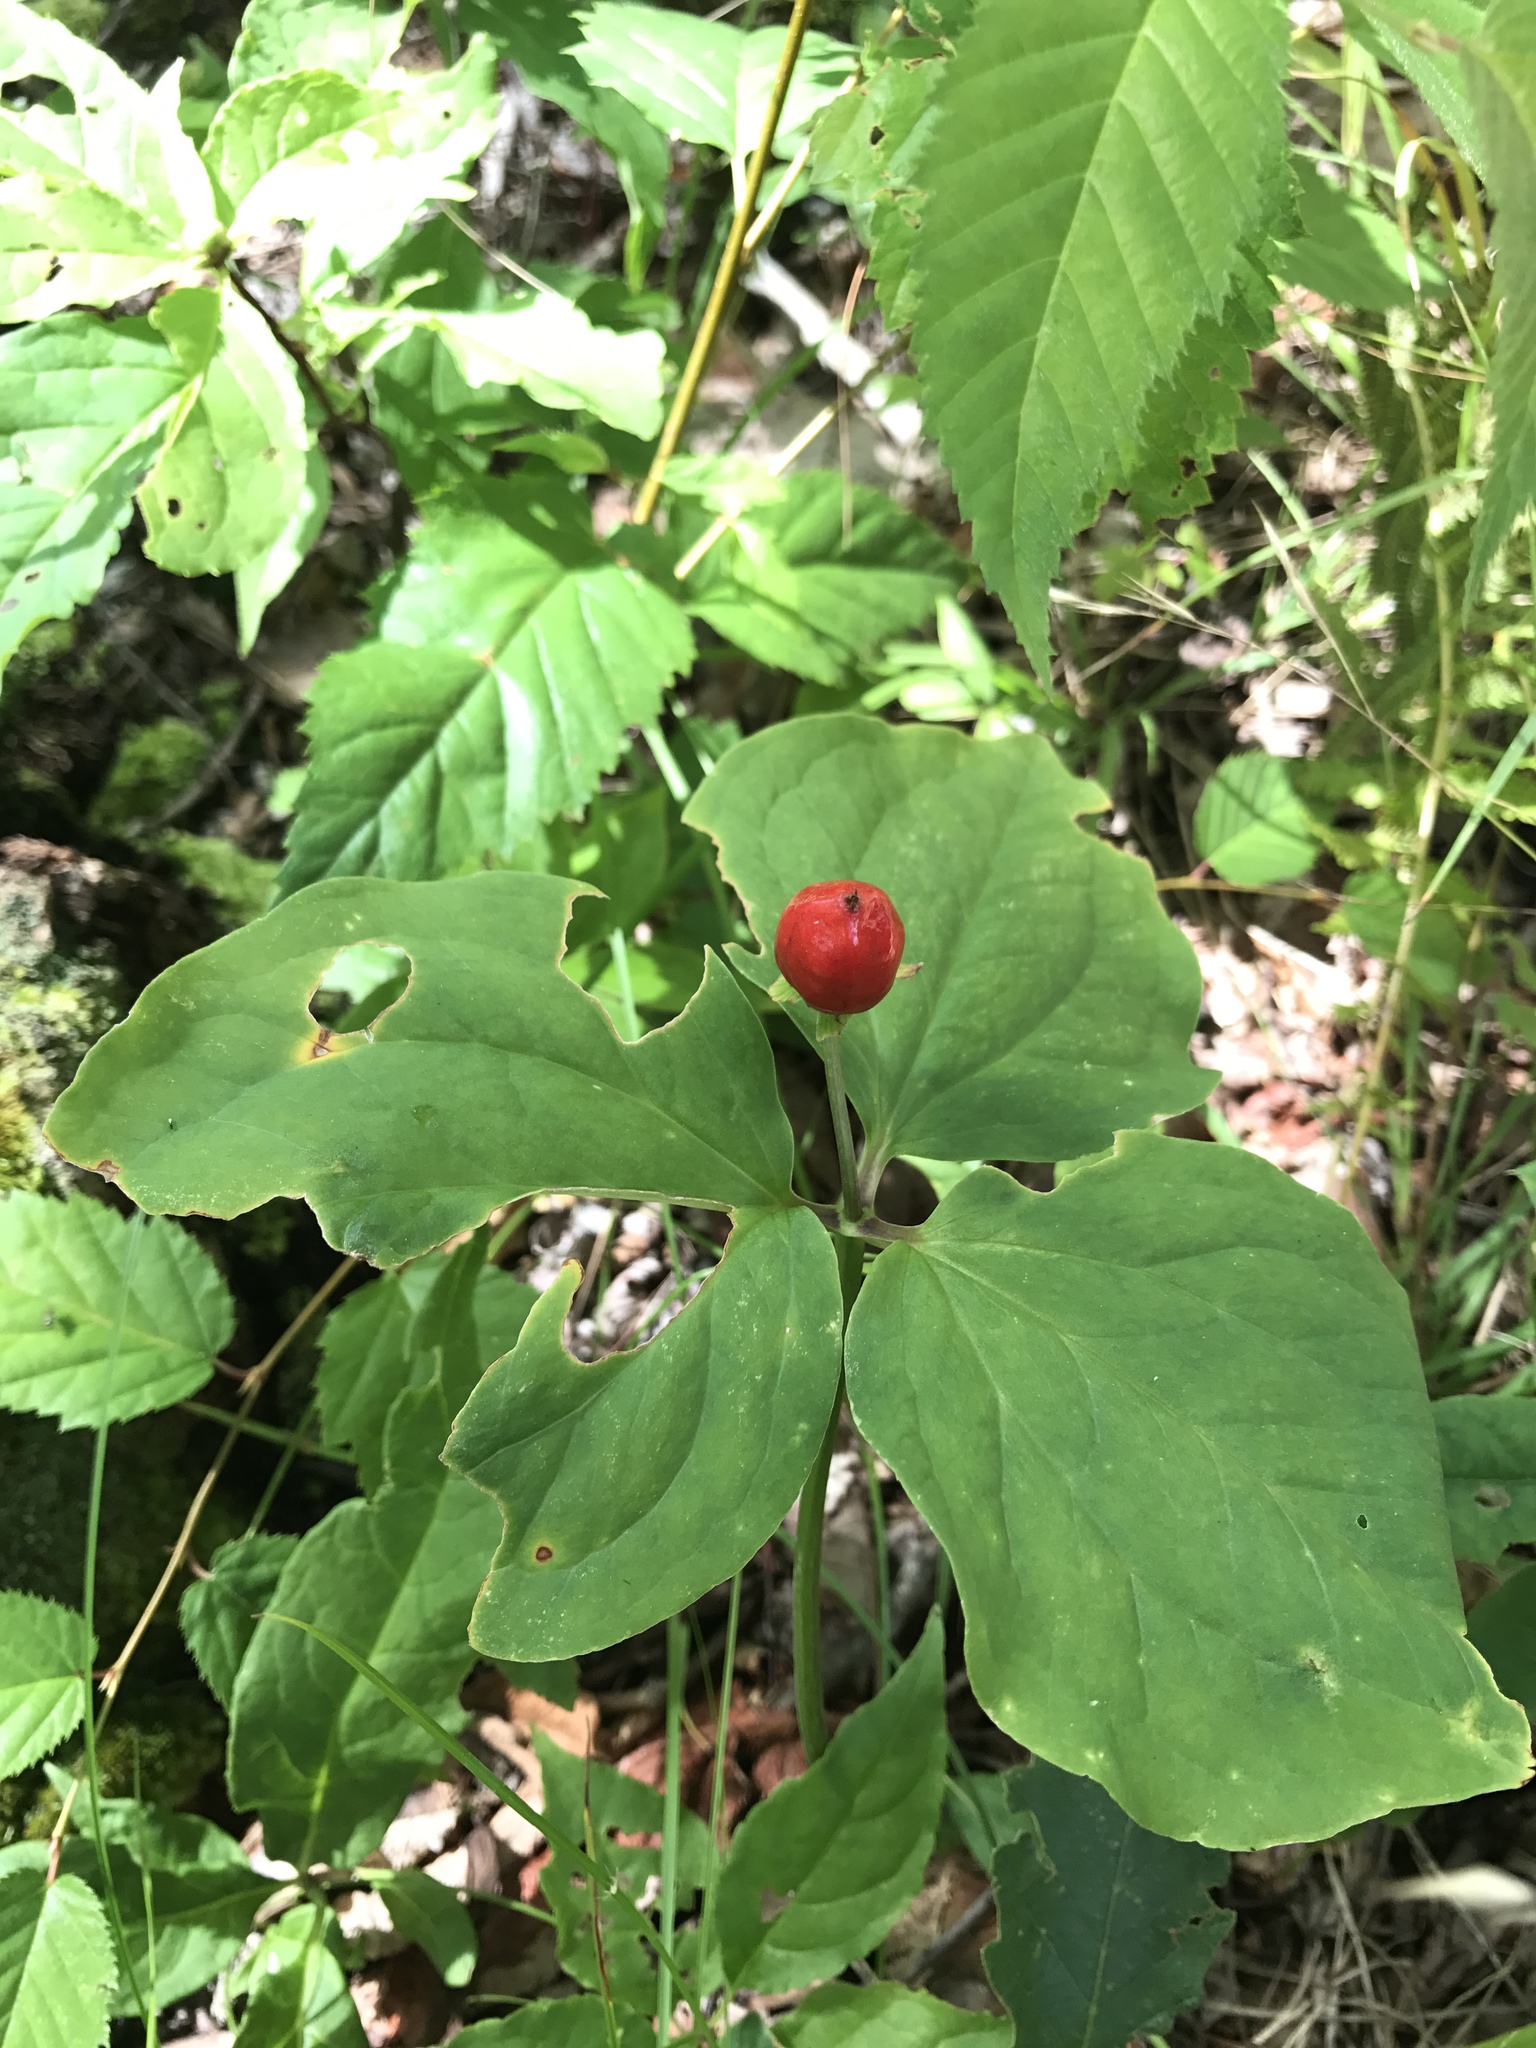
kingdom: Plantae
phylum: Tracheophyta
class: Liliopsida
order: Liliales
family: Melanthiaceae
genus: Trillium
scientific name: Trillium undulatum
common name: Paint trillium
